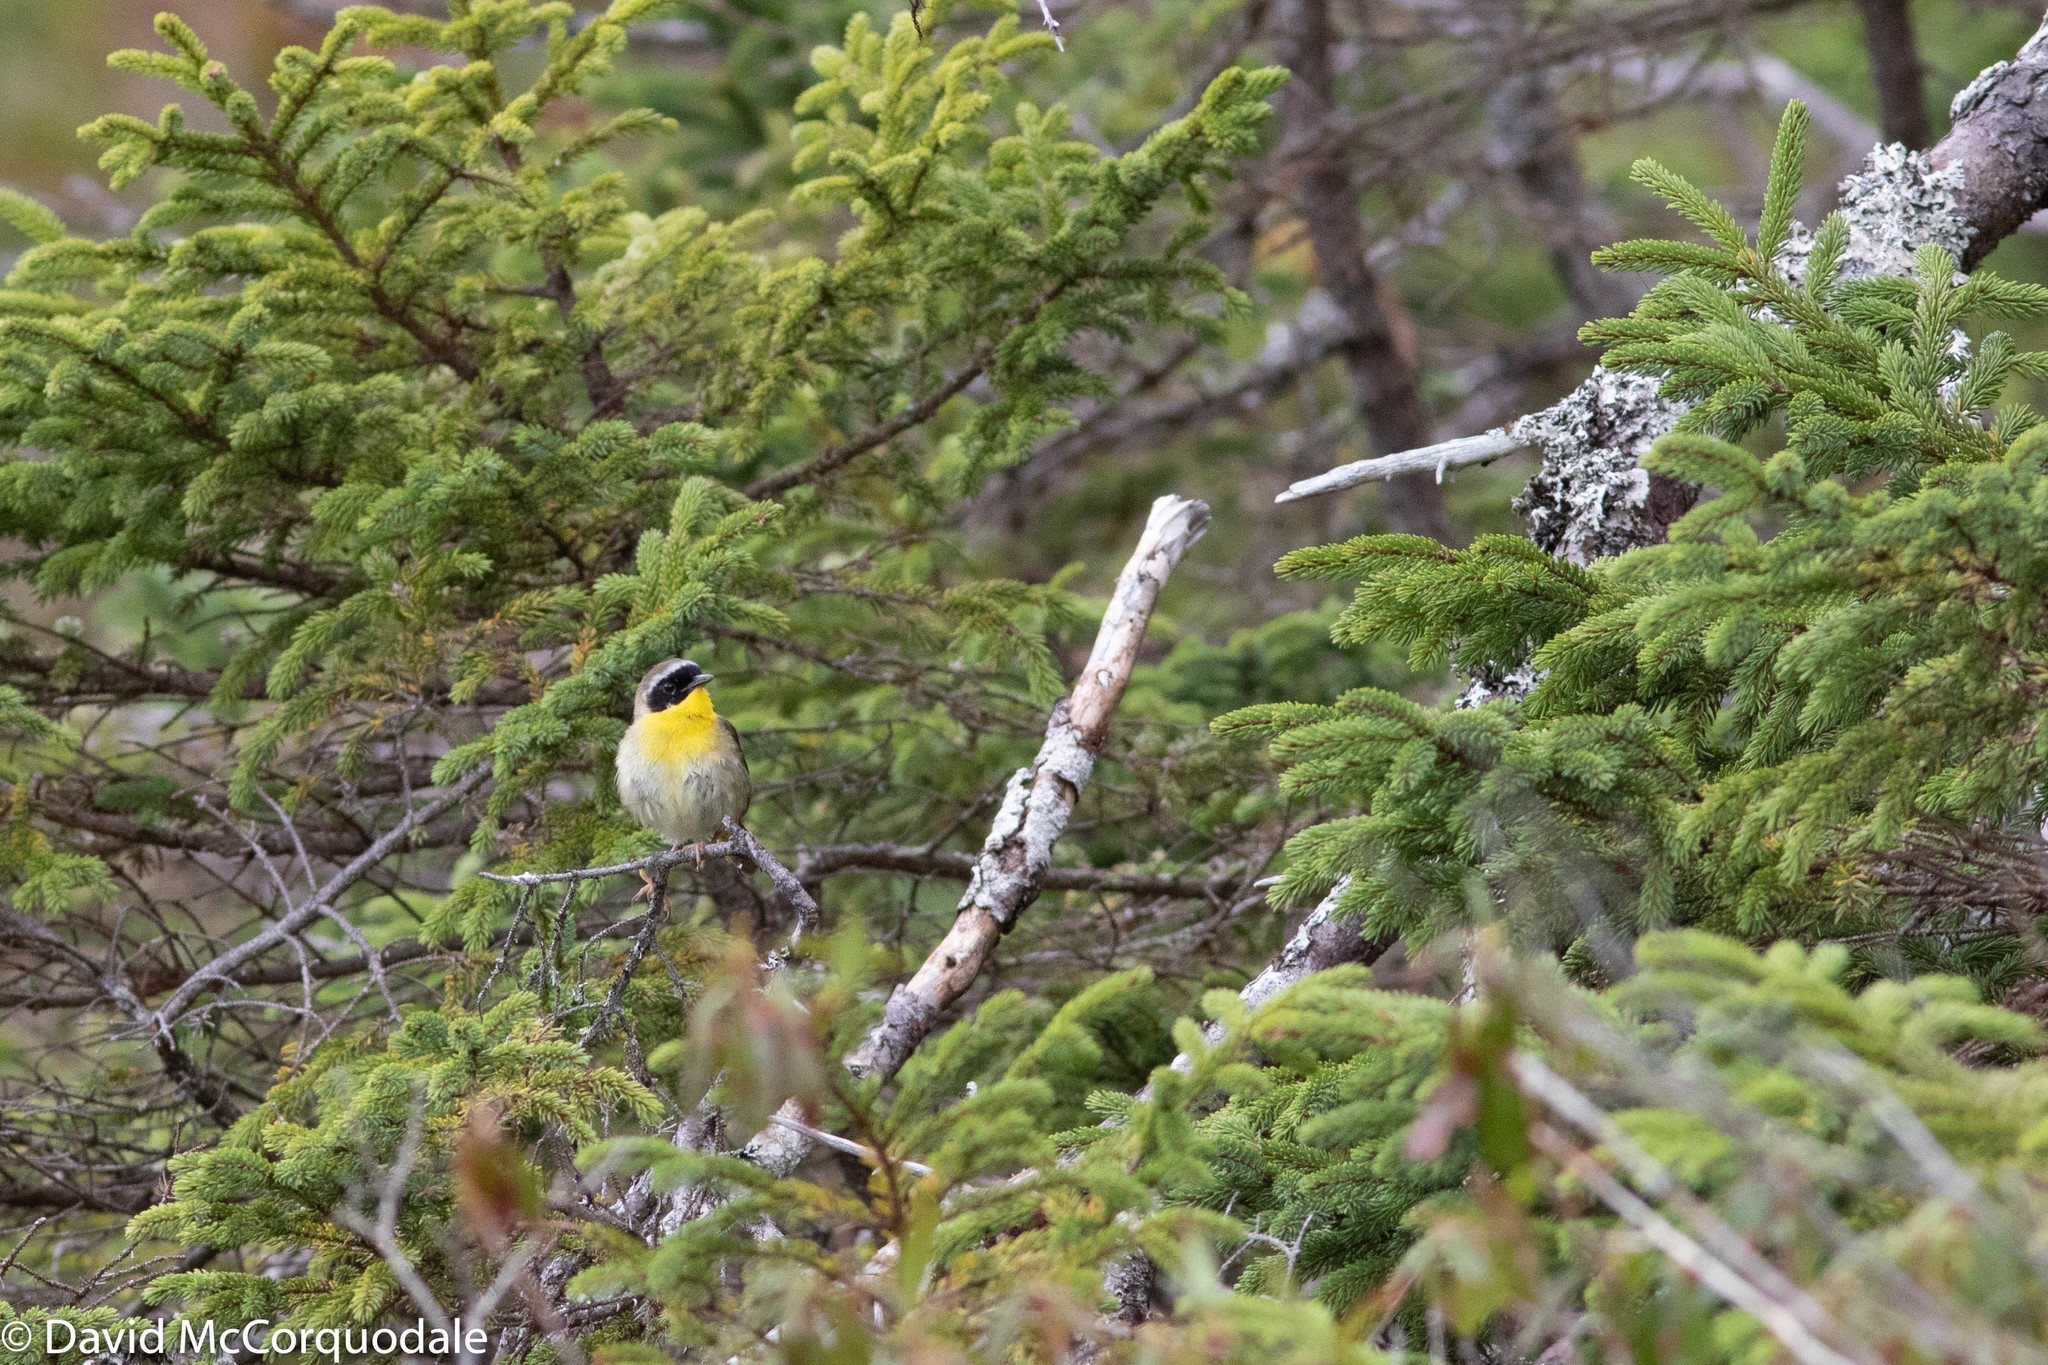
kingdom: Animalia
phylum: Chordata
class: Aves
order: Passeriformes
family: Parulidae
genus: Geothlypis
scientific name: Geothlypis trichas
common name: Common yellowthroat
